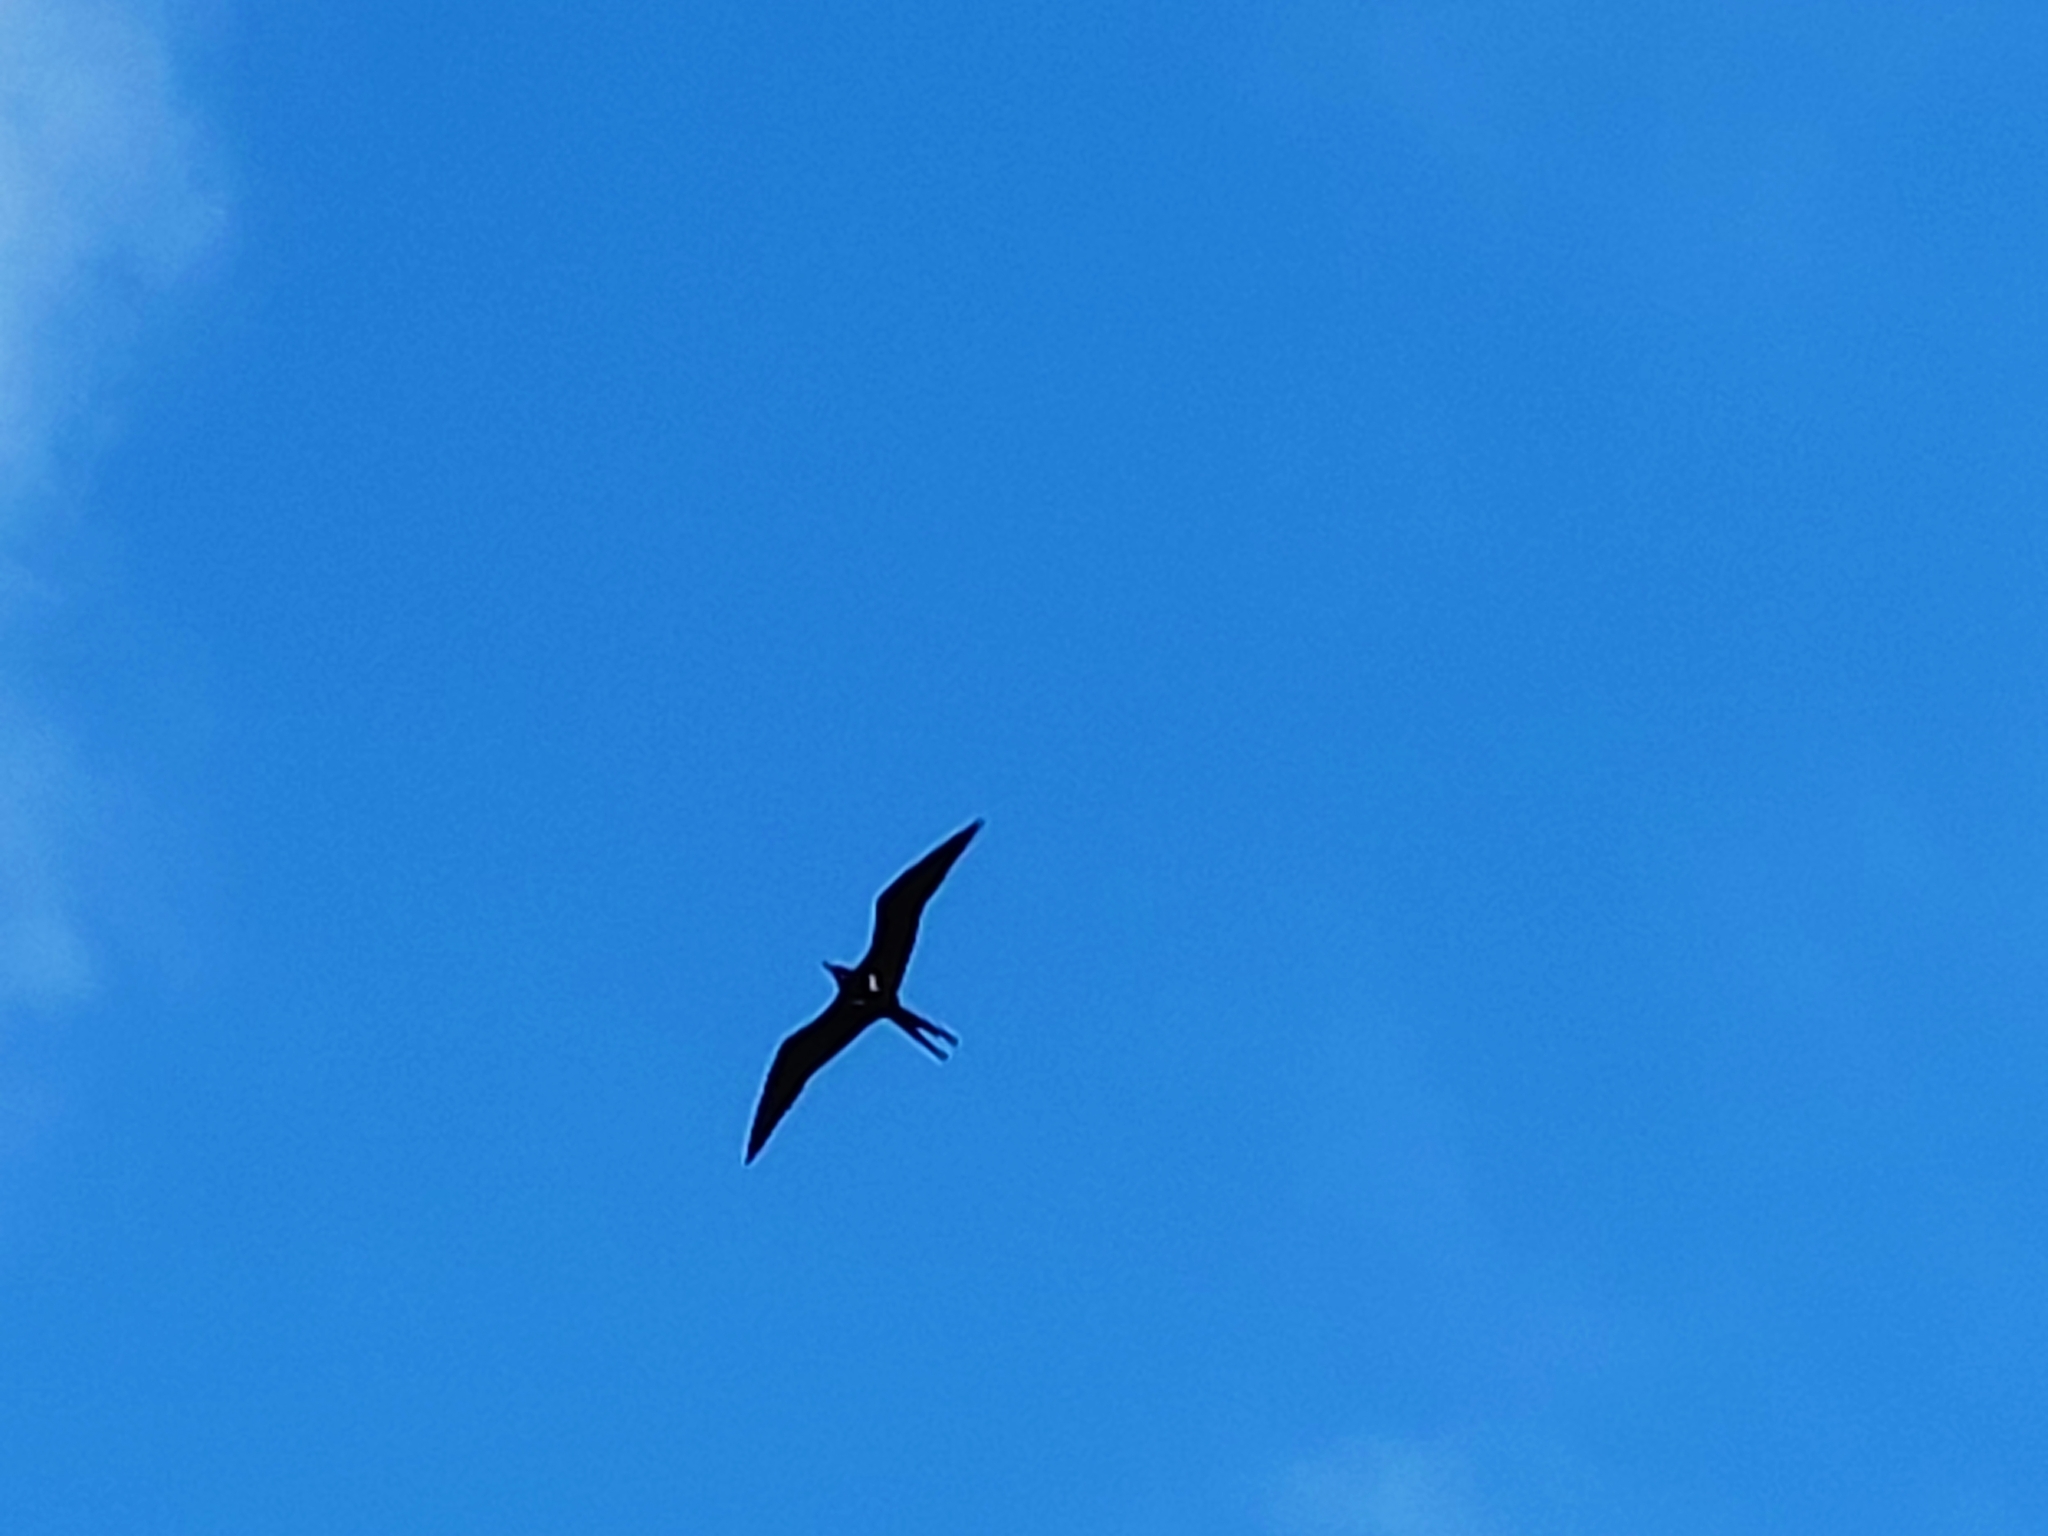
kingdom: Animalia
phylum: Chordata
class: Aves
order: Suliformes
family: Fregatidae
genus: Fregata
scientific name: Fregata ariel
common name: Lesser frigatebird
